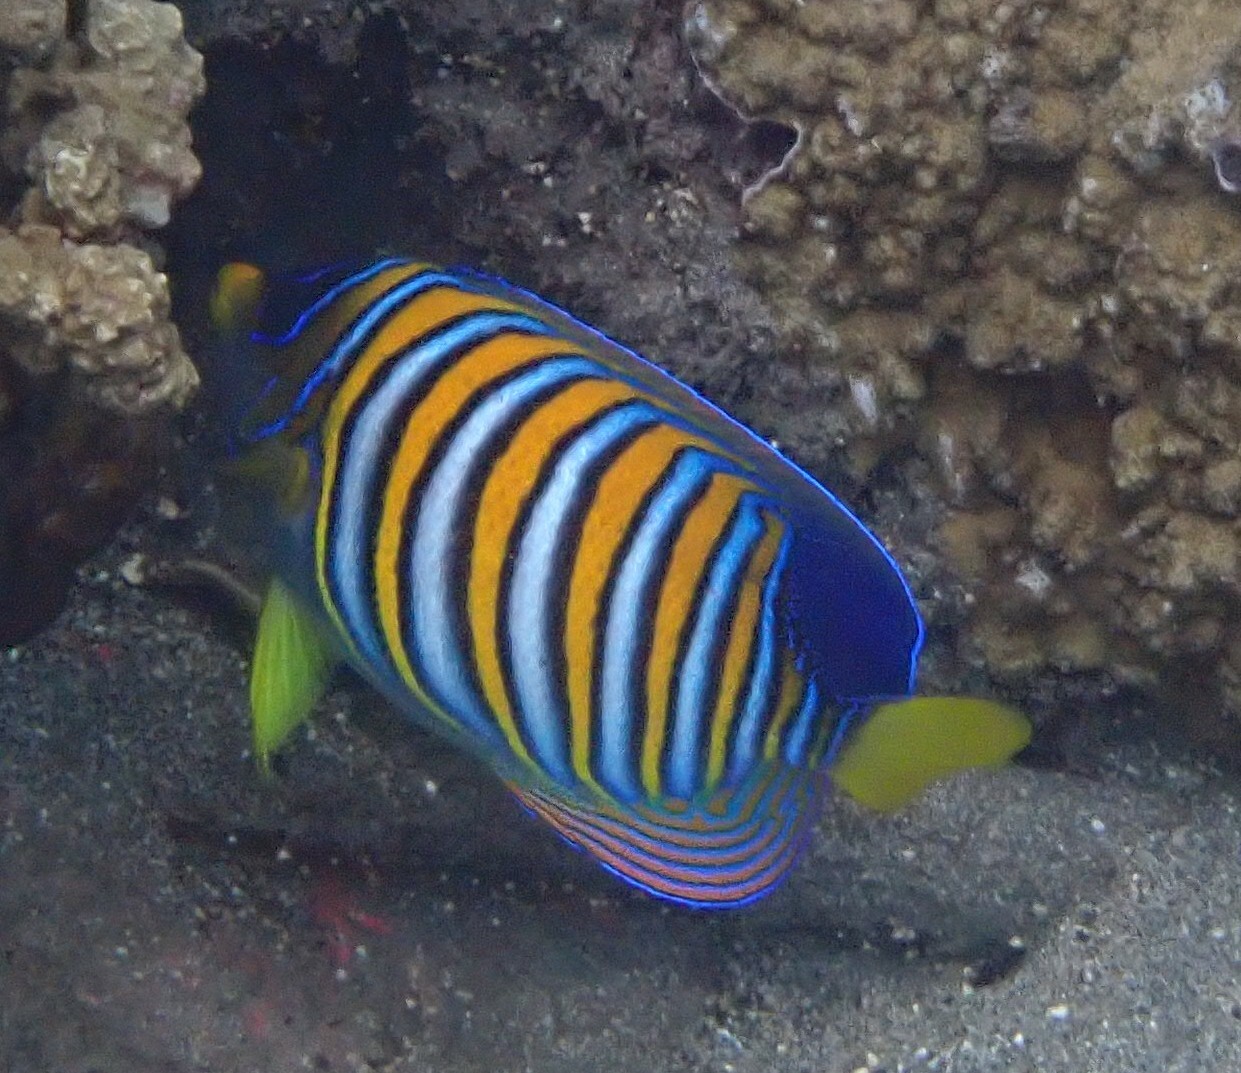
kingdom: Animalia
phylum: Chordata
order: Perciformes
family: Pomacanthidae
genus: Pygoplites
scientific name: Pygoplites diacanthus
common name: Regal angelfish
